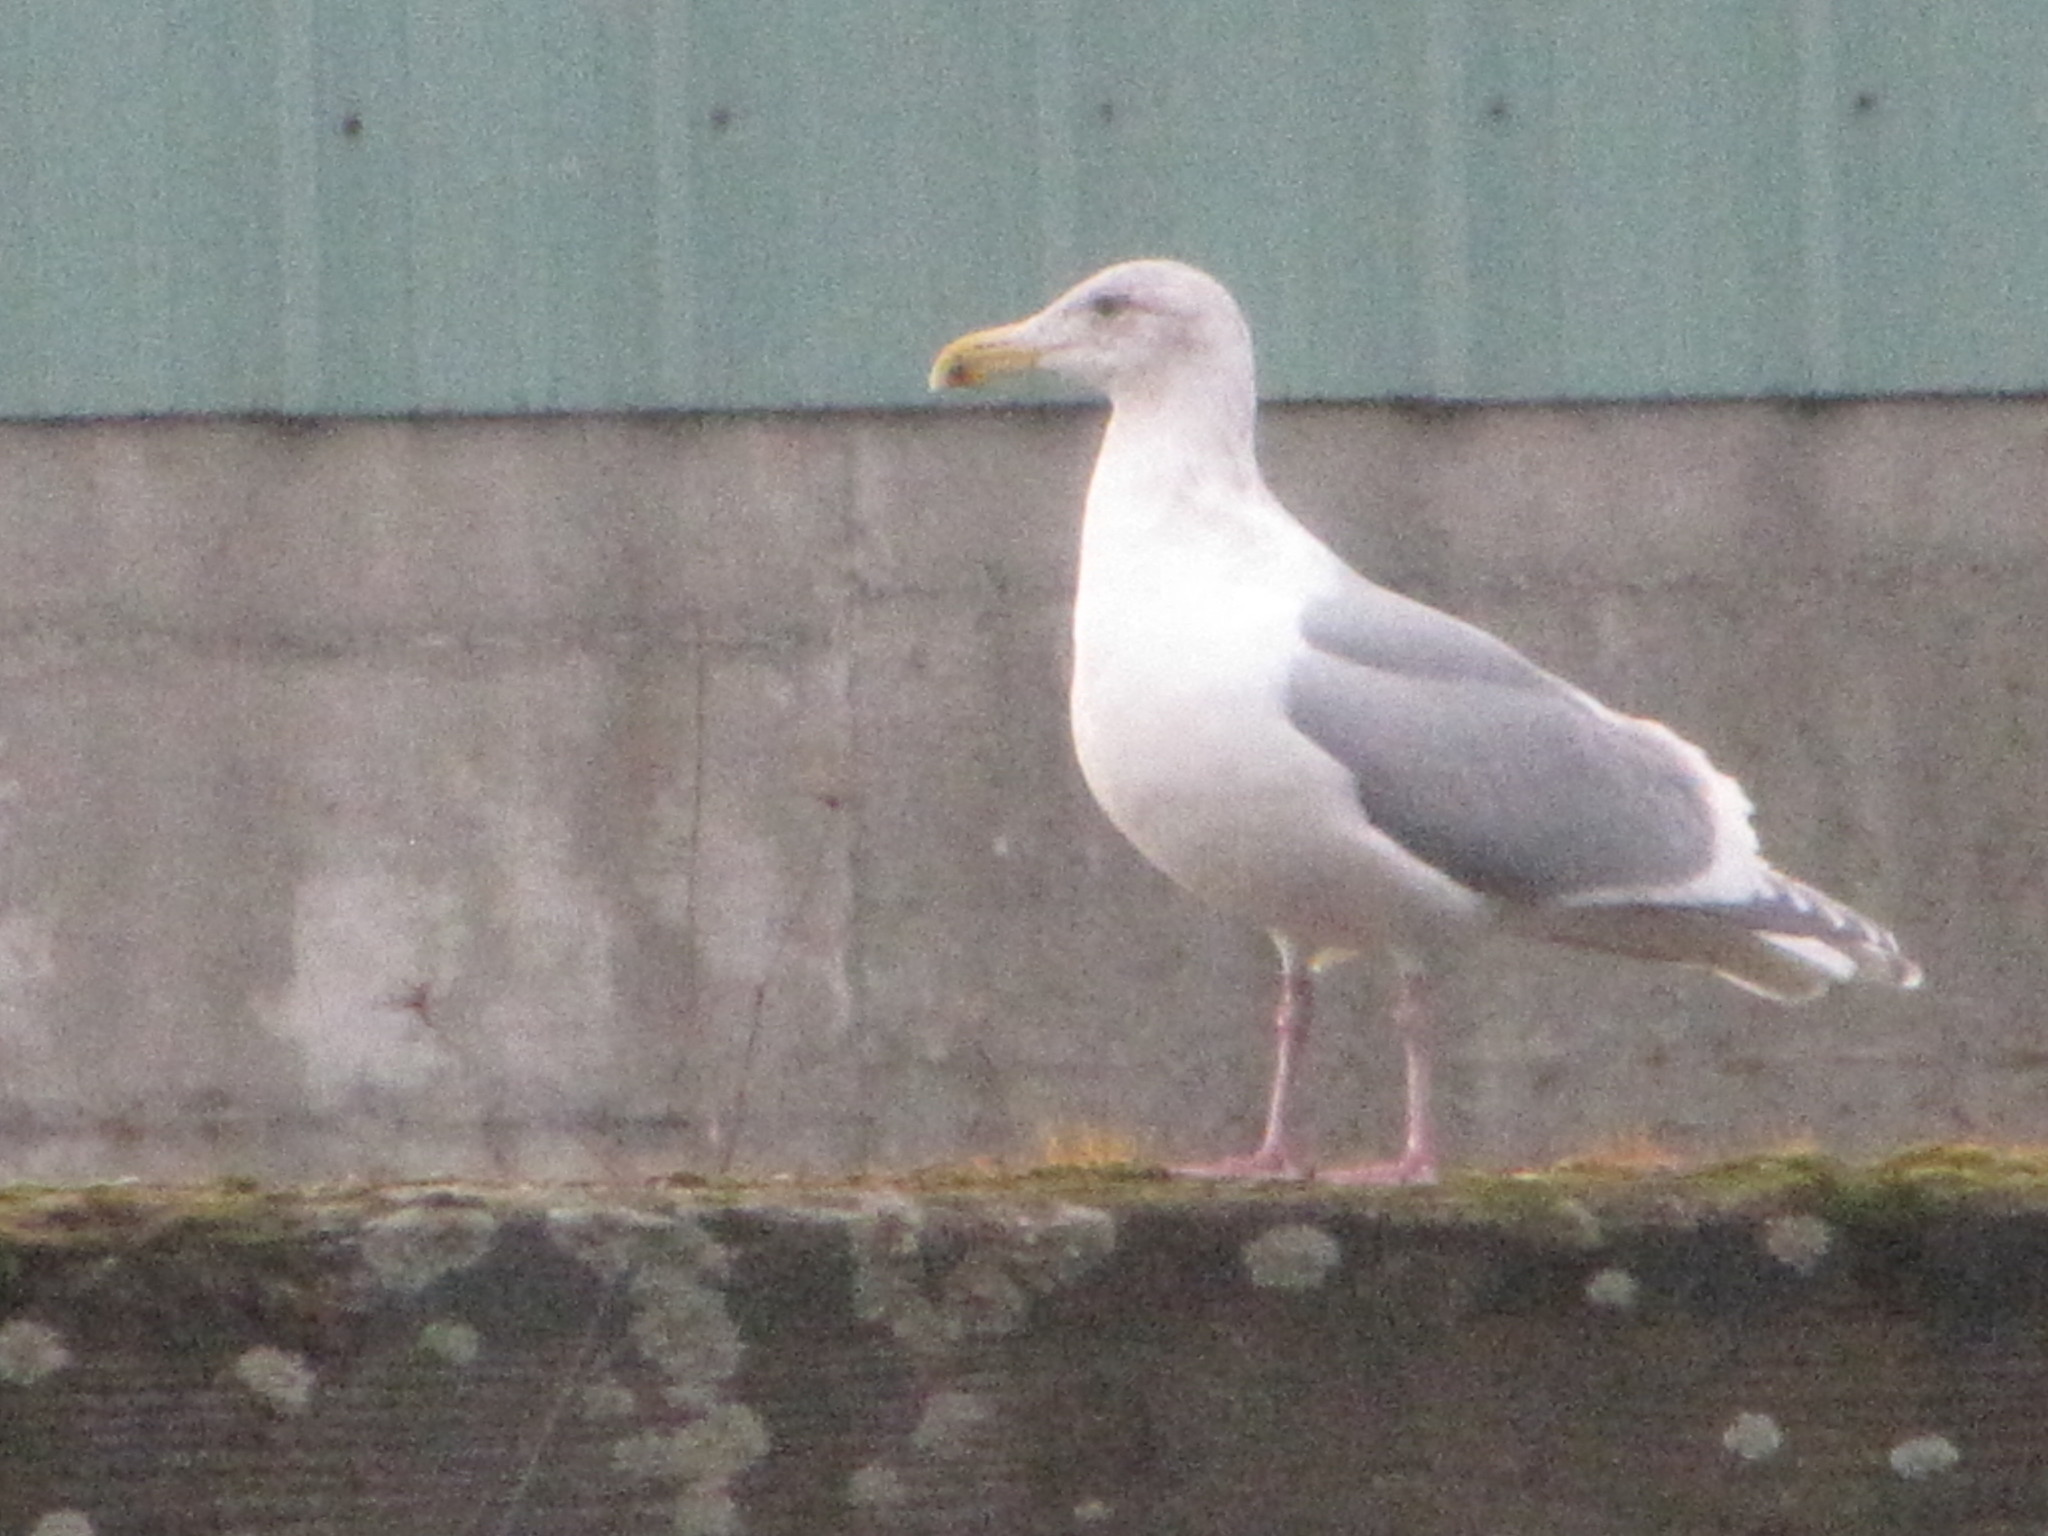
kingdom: Animalia
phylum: Chordata
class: Aves
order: Charadriiformes
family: Laridae
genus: Larus
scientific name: Larus
